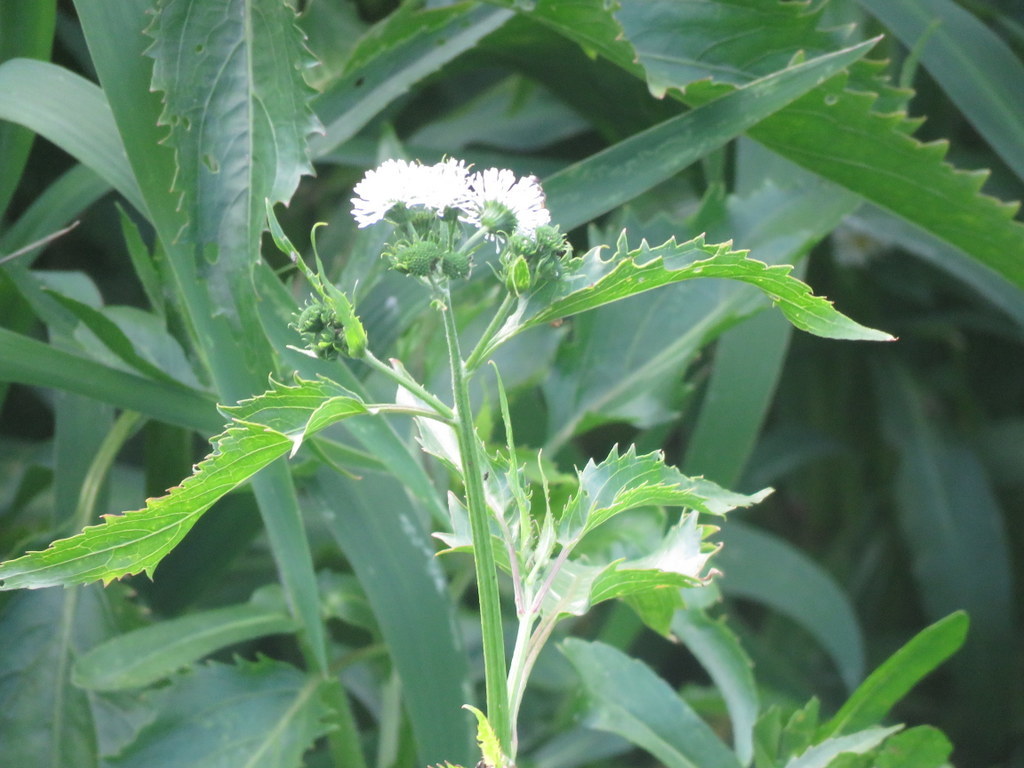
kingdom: Plantae
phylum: Tracheophyta
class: Magnoliopsida
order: Asterales
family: Asteraceae
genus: Gymnocoronis
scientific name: Gymnocoronis spilanthoides
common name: Senegal teaplant
